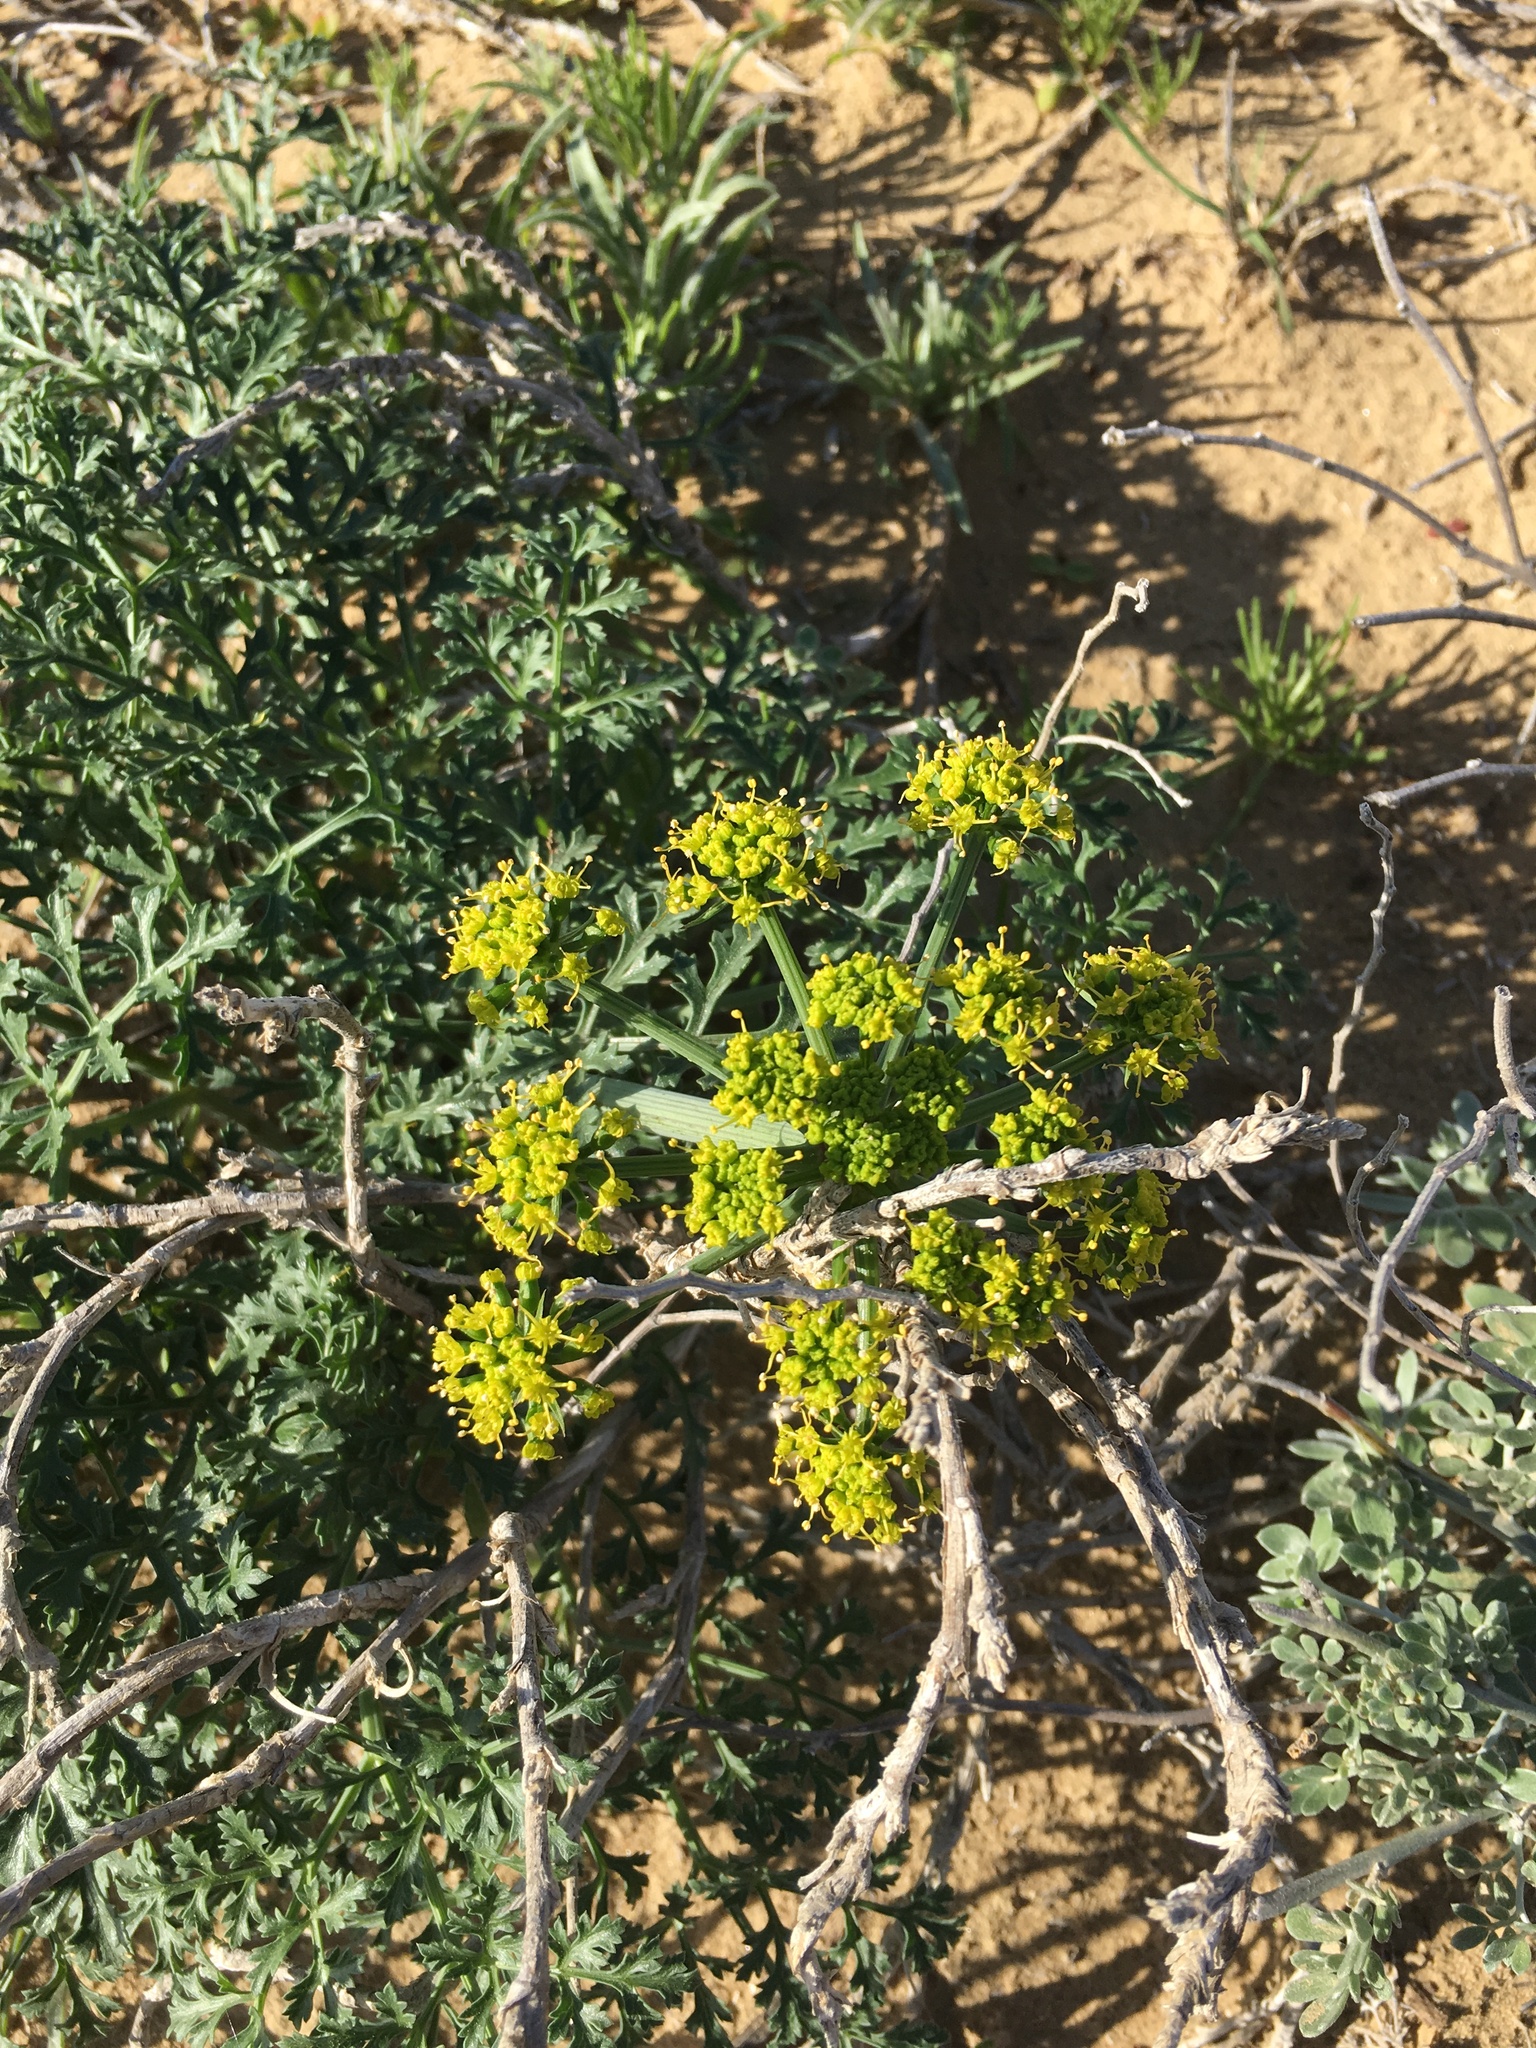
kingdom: Plantae
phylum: Tracheophyta
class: Magnoliopsida
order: Apiales
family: Apiaceae
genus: Lomatium
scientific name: Lomatium insulare
